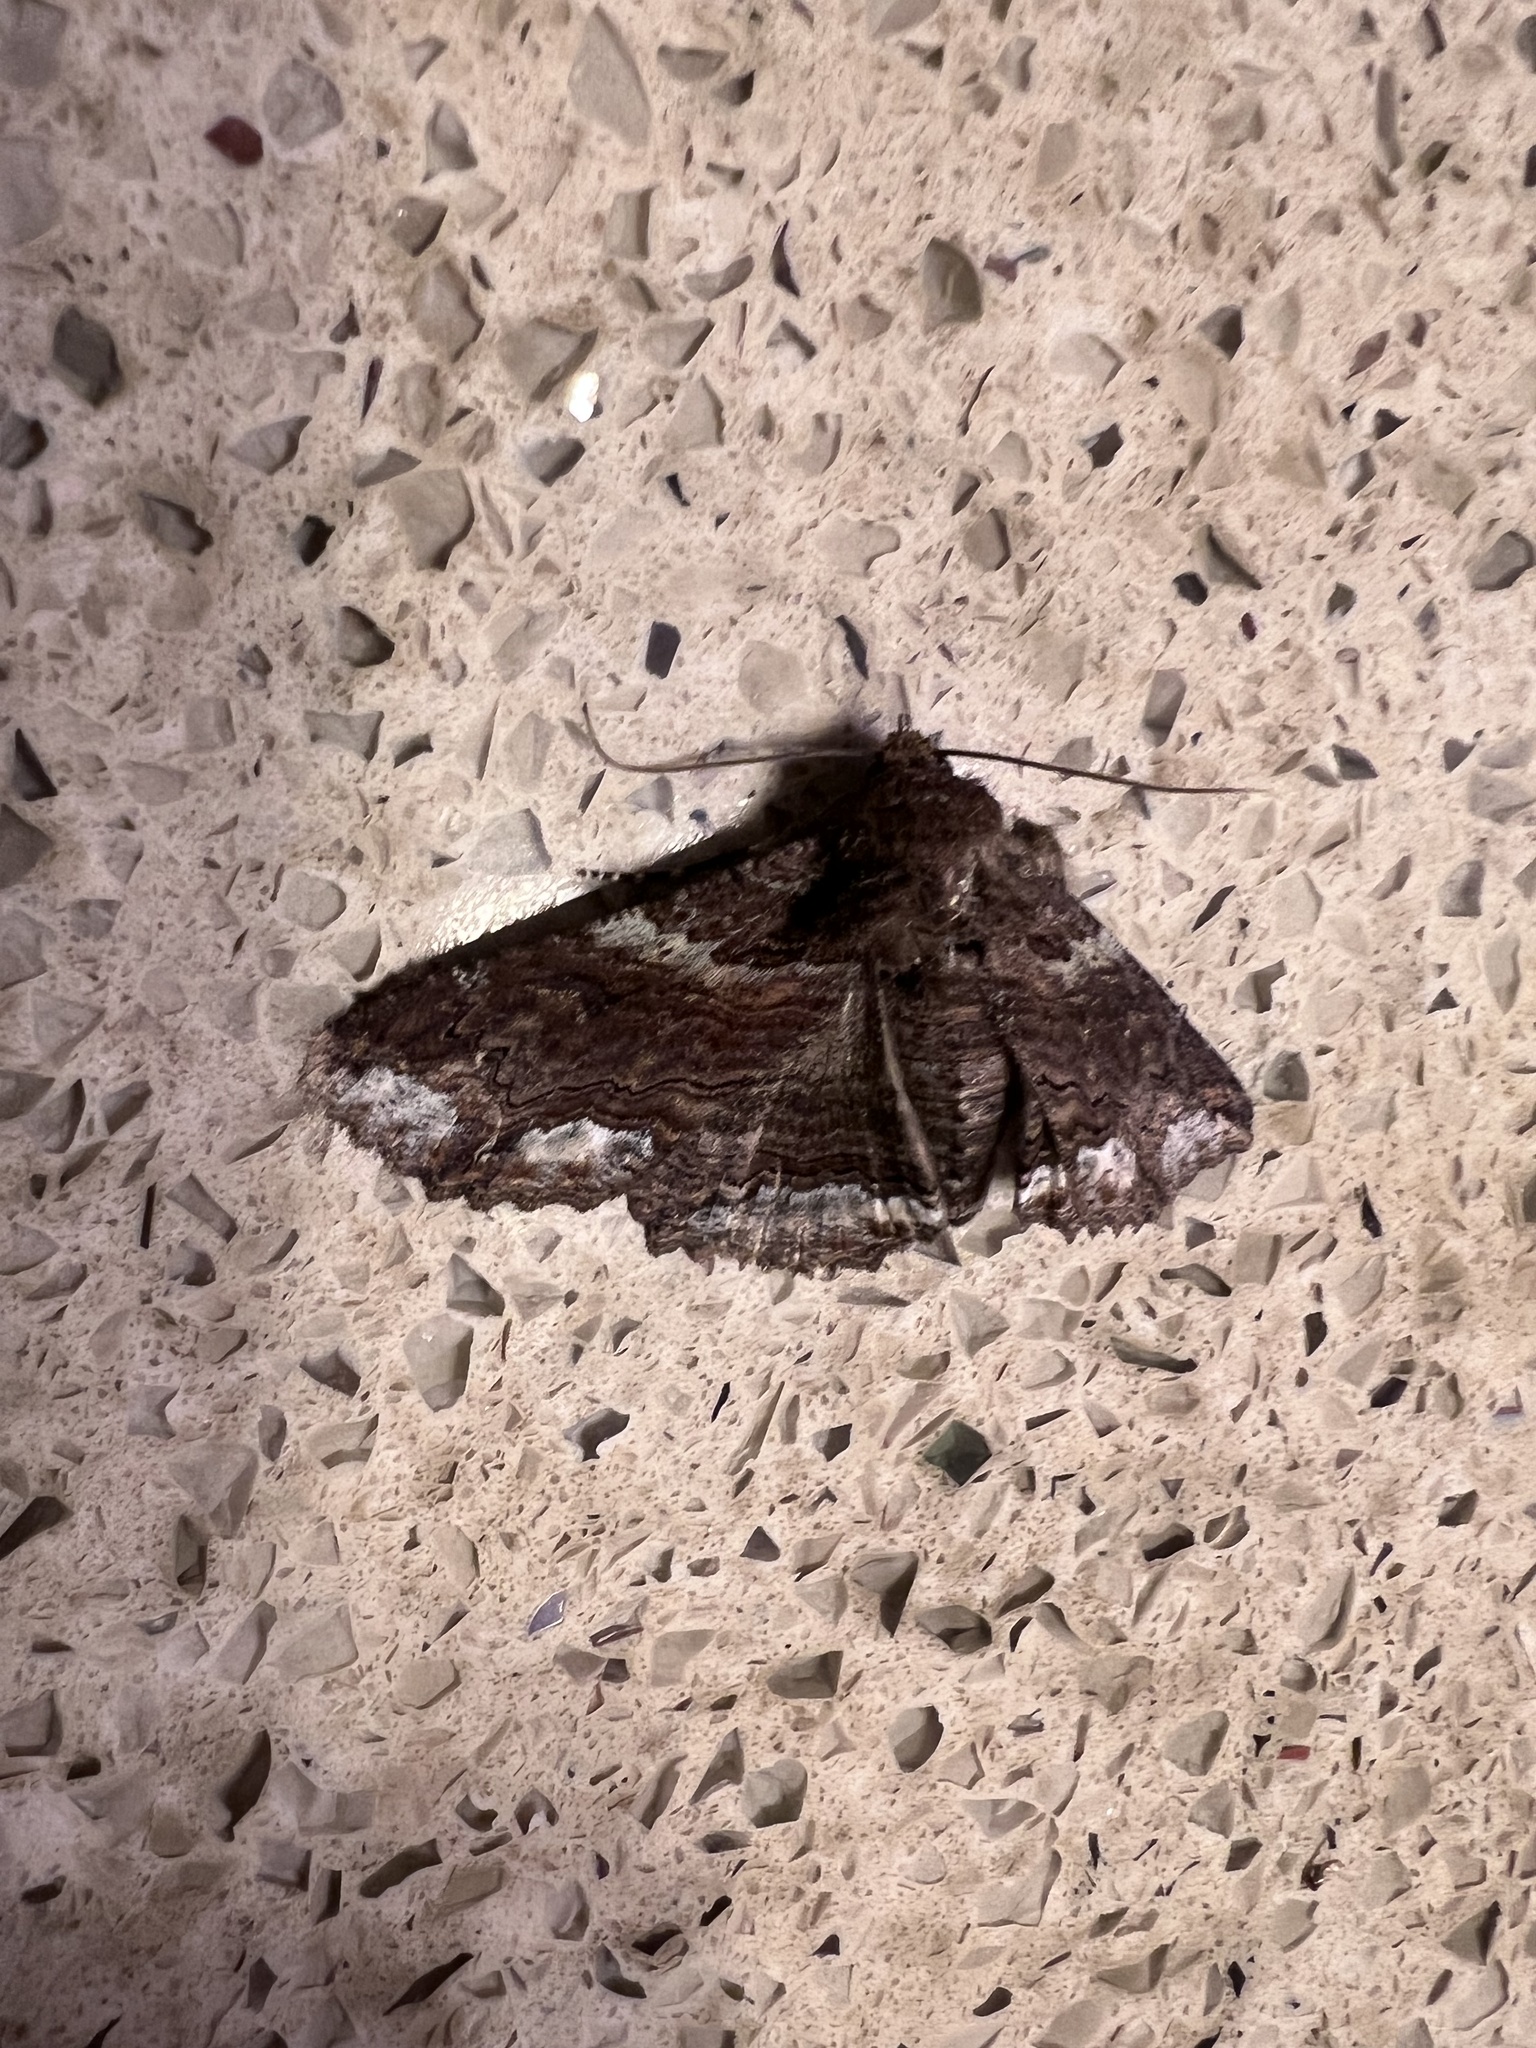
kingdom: Animalia
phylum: Arthropoda
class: Insecta
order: Lepidoptera
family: Erebidae
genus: Zale
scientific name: Zale lunata
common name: Lunate zale moth
